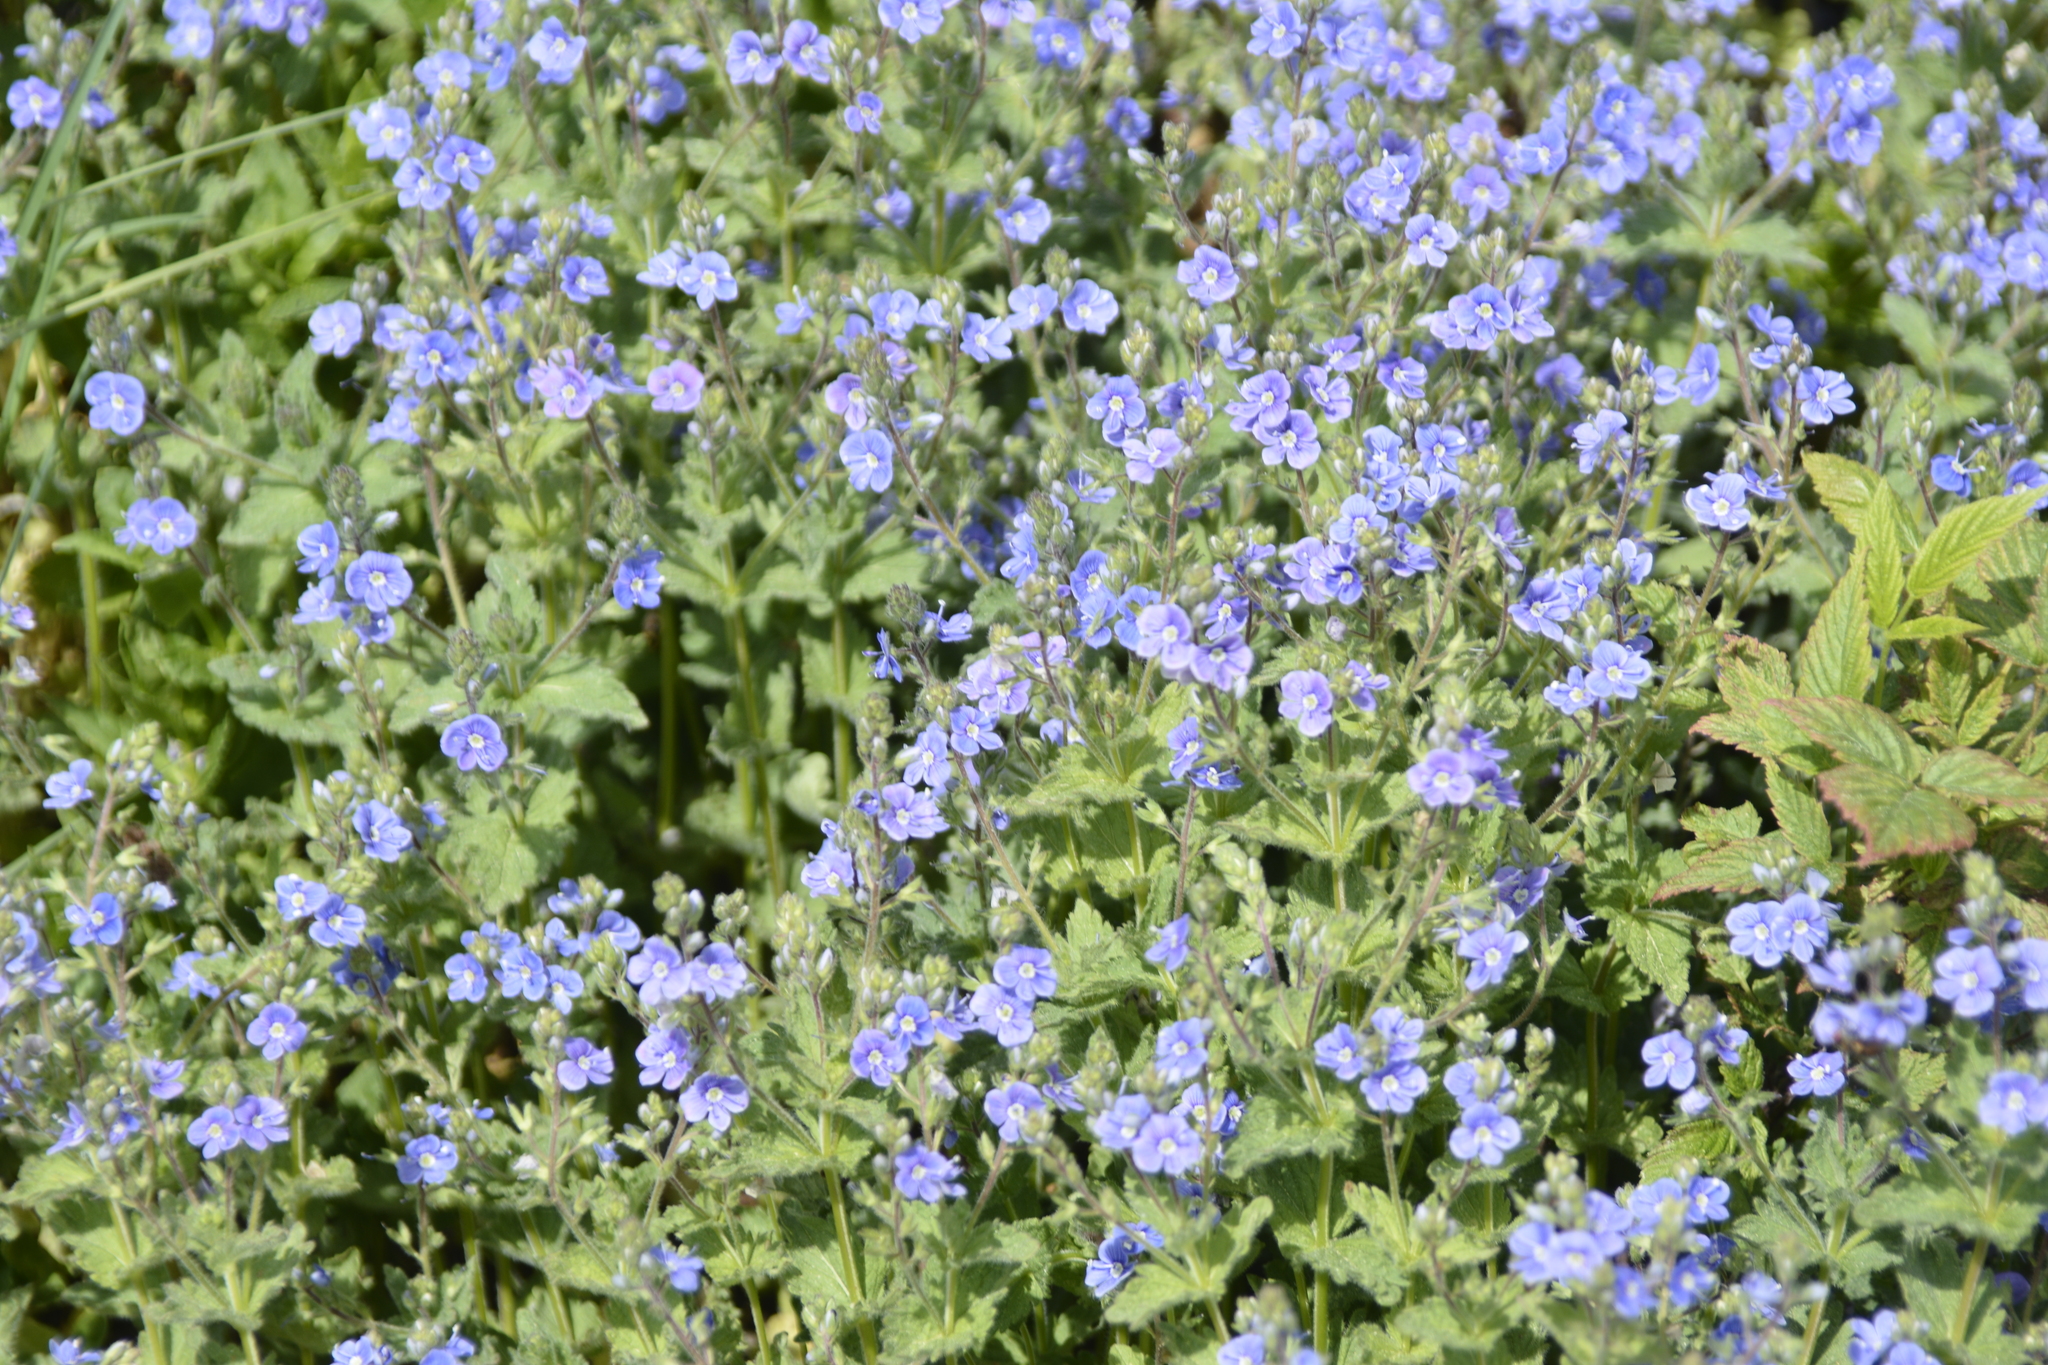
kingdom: Plantae
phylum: Tracheophyta
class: Magnoliopsida
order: Lamiales
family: Plantaginaceae
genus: Veronica
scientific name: Veronica chamaedrys
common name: Germander speedwell
